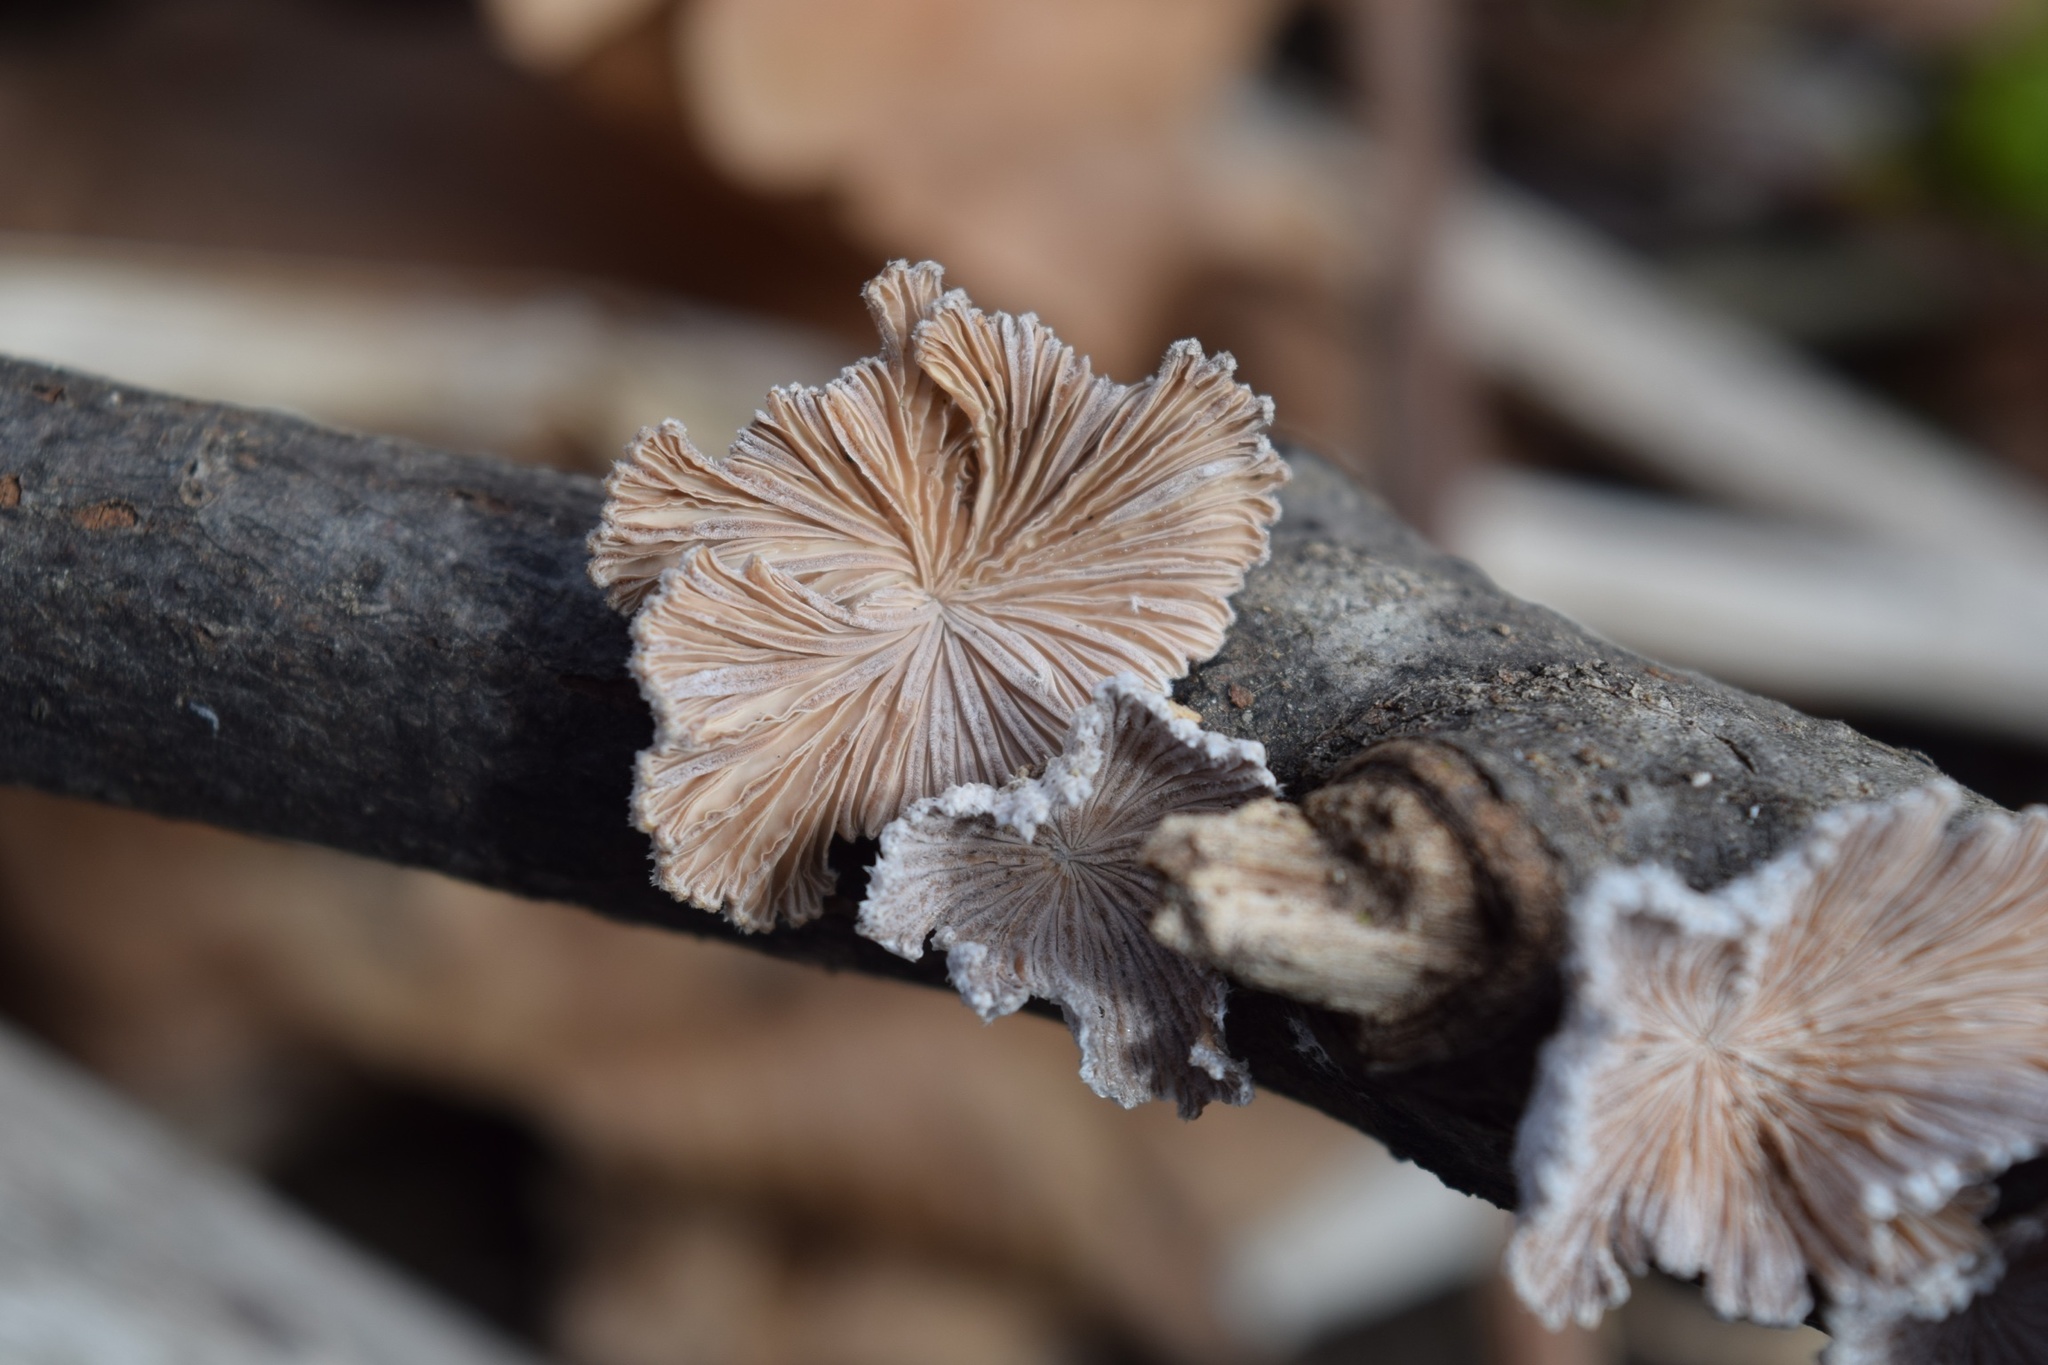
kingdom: Fungi
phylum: Basidiomycota
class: Agaricomycetes
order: Agaricales
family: Schizophyllaceae
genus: Schizophyllum
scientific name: Schizophyllum commune
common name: Common porecrust
